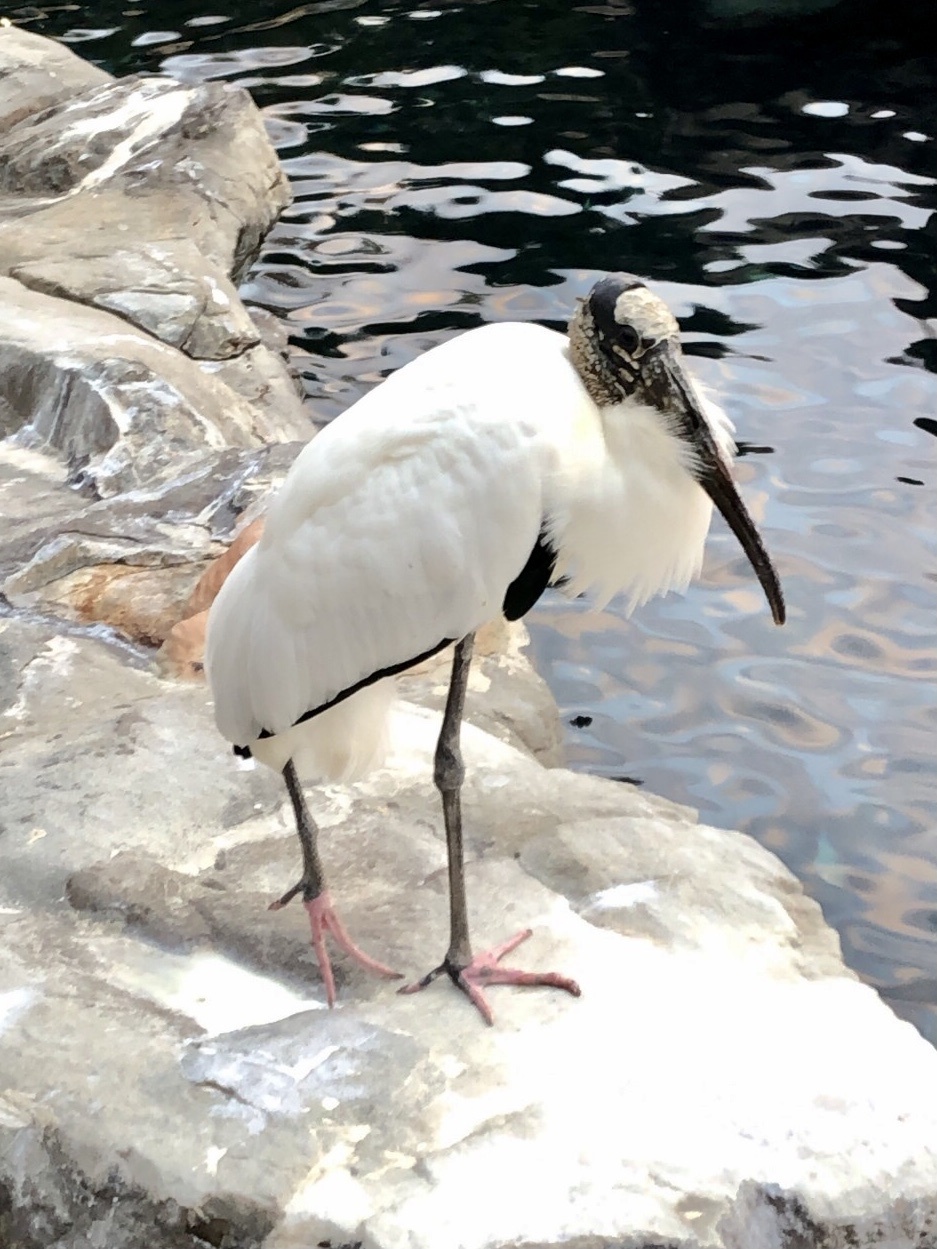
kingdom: Animalia
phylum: Chordata
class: Aves
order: Ciconiiformes
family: Ciconiidae
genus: Mycteria
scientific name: Mycteria americana
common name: Wood stork
